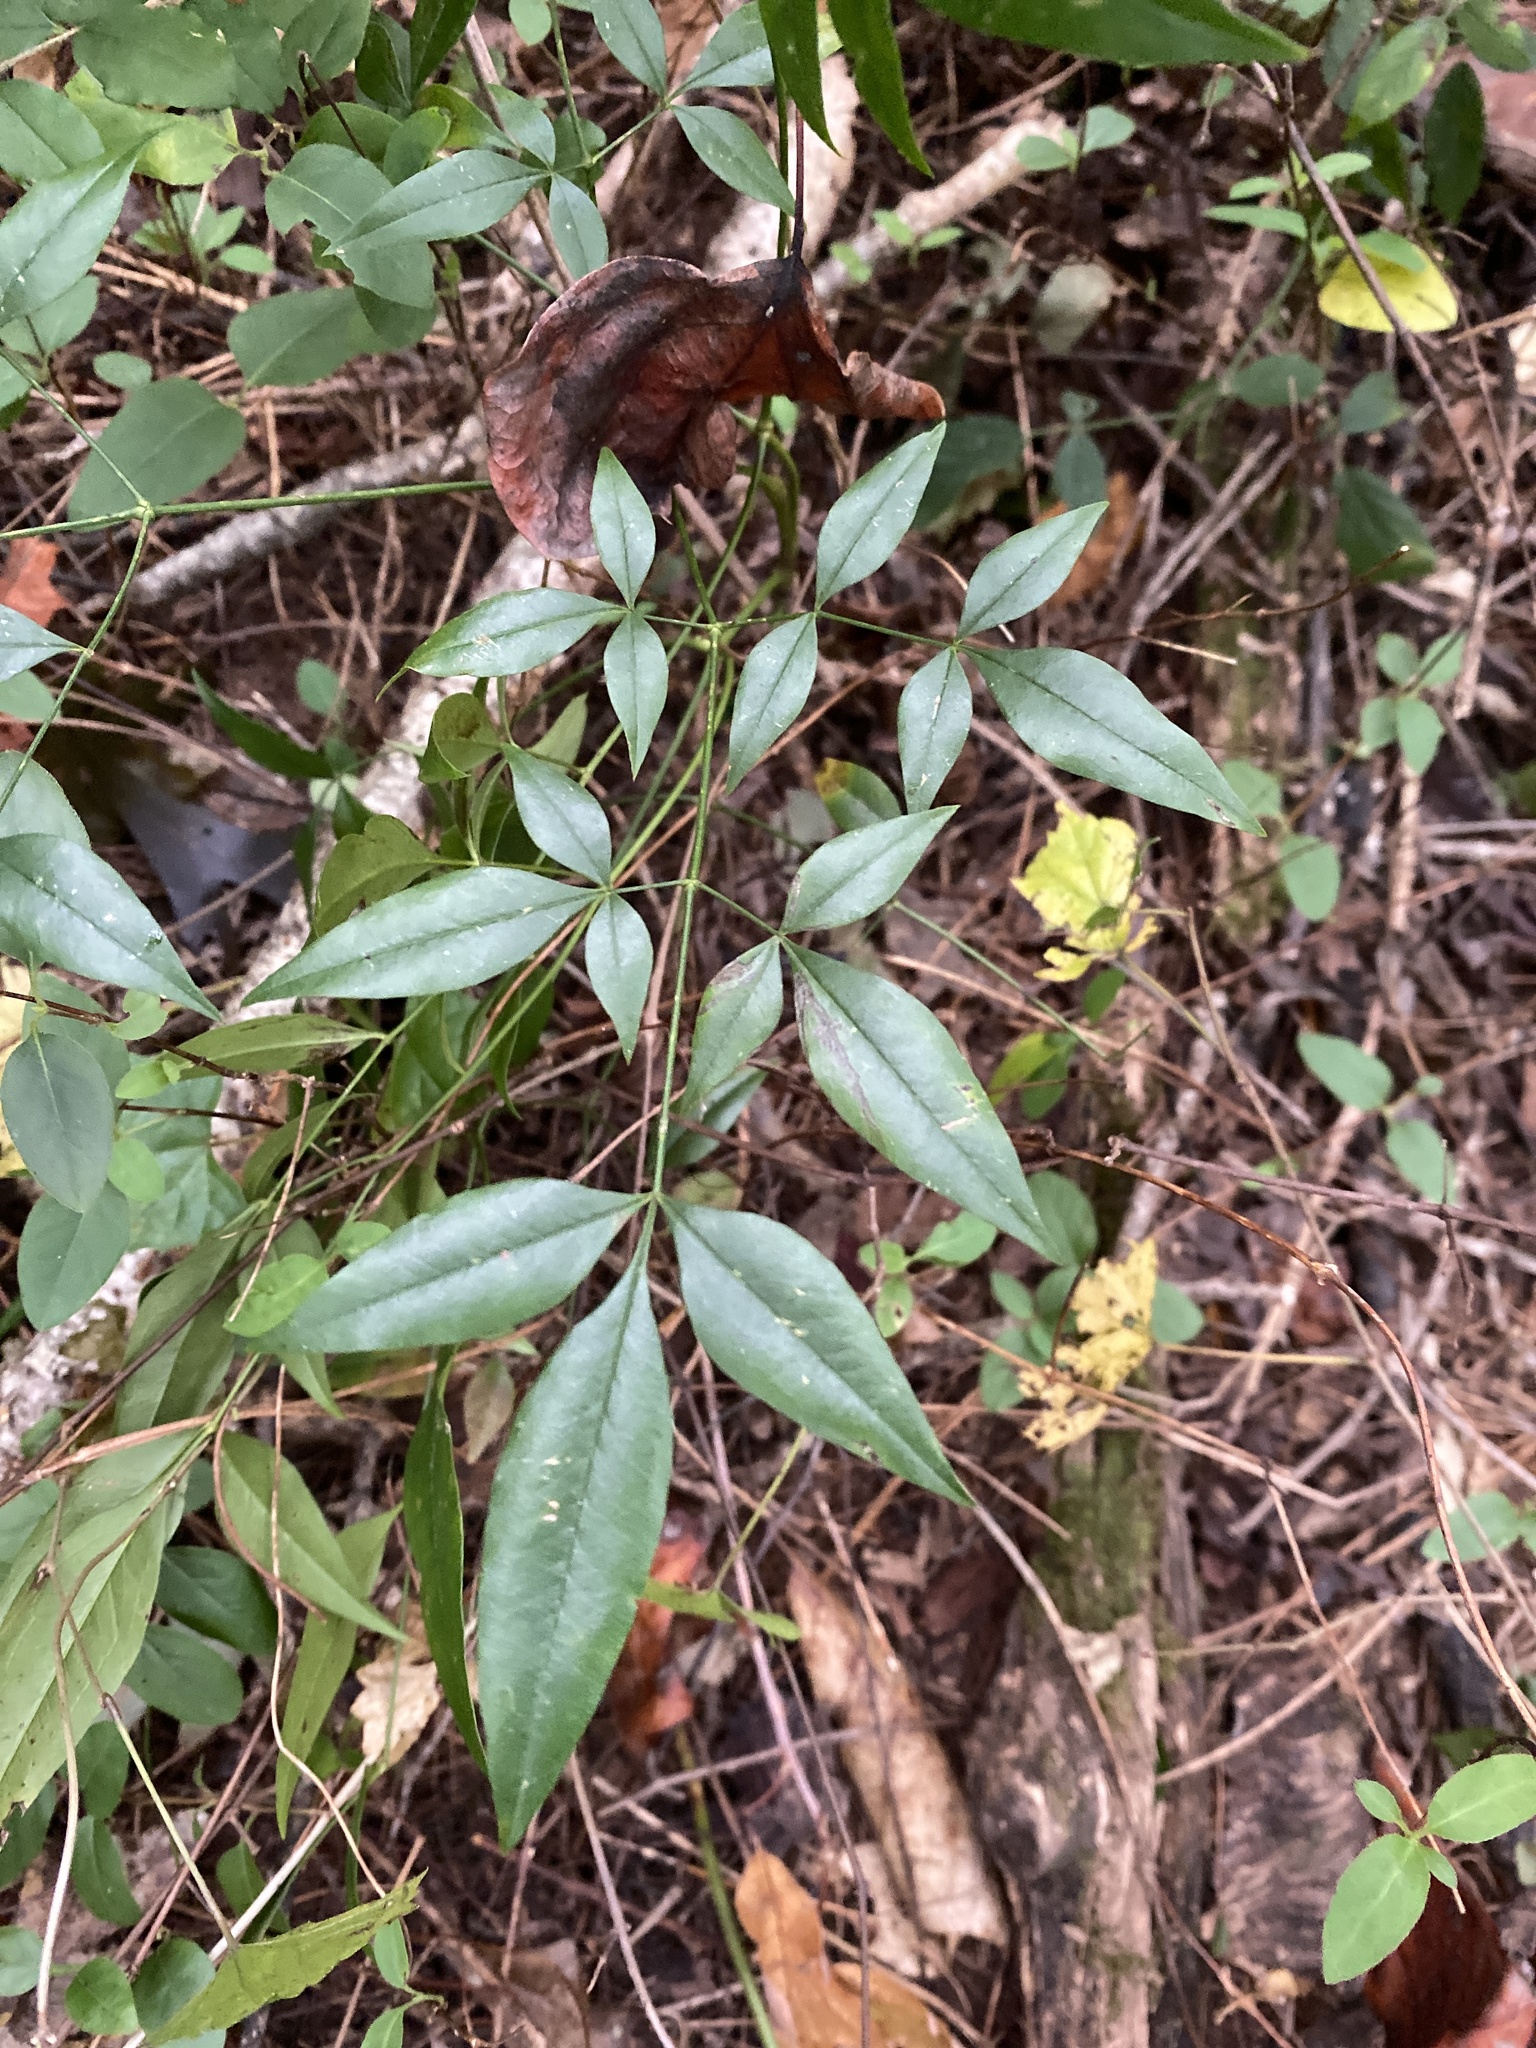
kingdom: Plantae
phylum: Tracheophyta
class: Magnoliopsida
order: Ranunculales
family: Berberidaceae
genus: Nandina
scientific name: Nandina domestica
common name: Sacred bamboo
